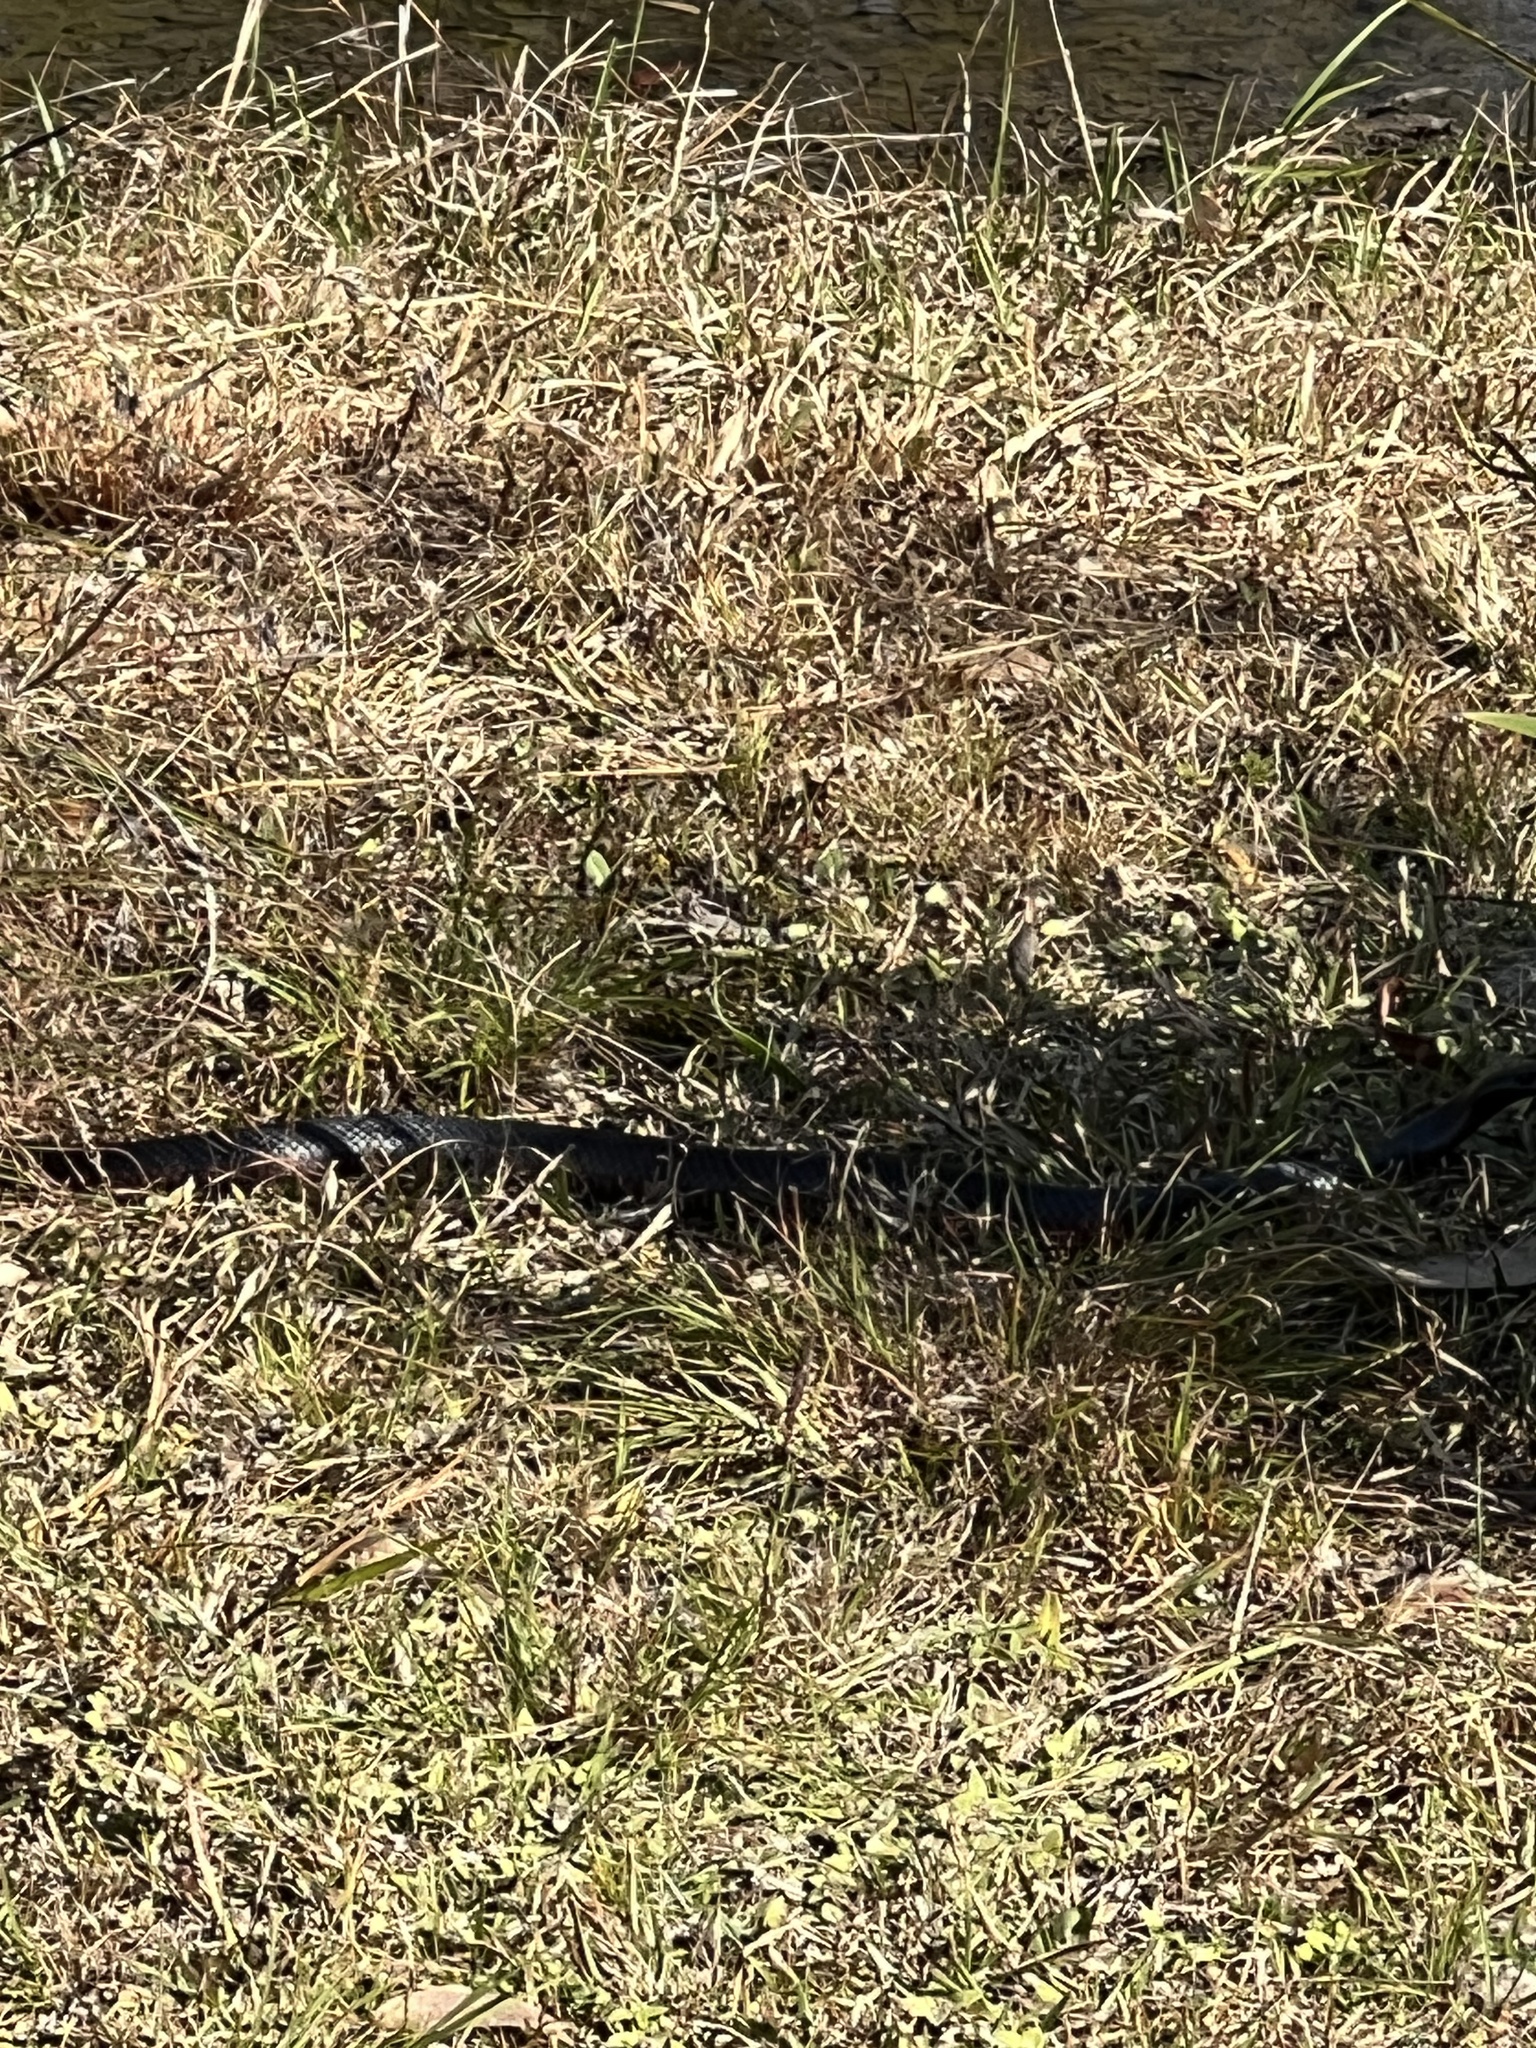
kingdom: Animalia
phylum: Chordata
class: Squamata
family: Elapidae
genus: Pseudechis
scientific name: Pseudechis porphyriacus
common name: Australian black snake
